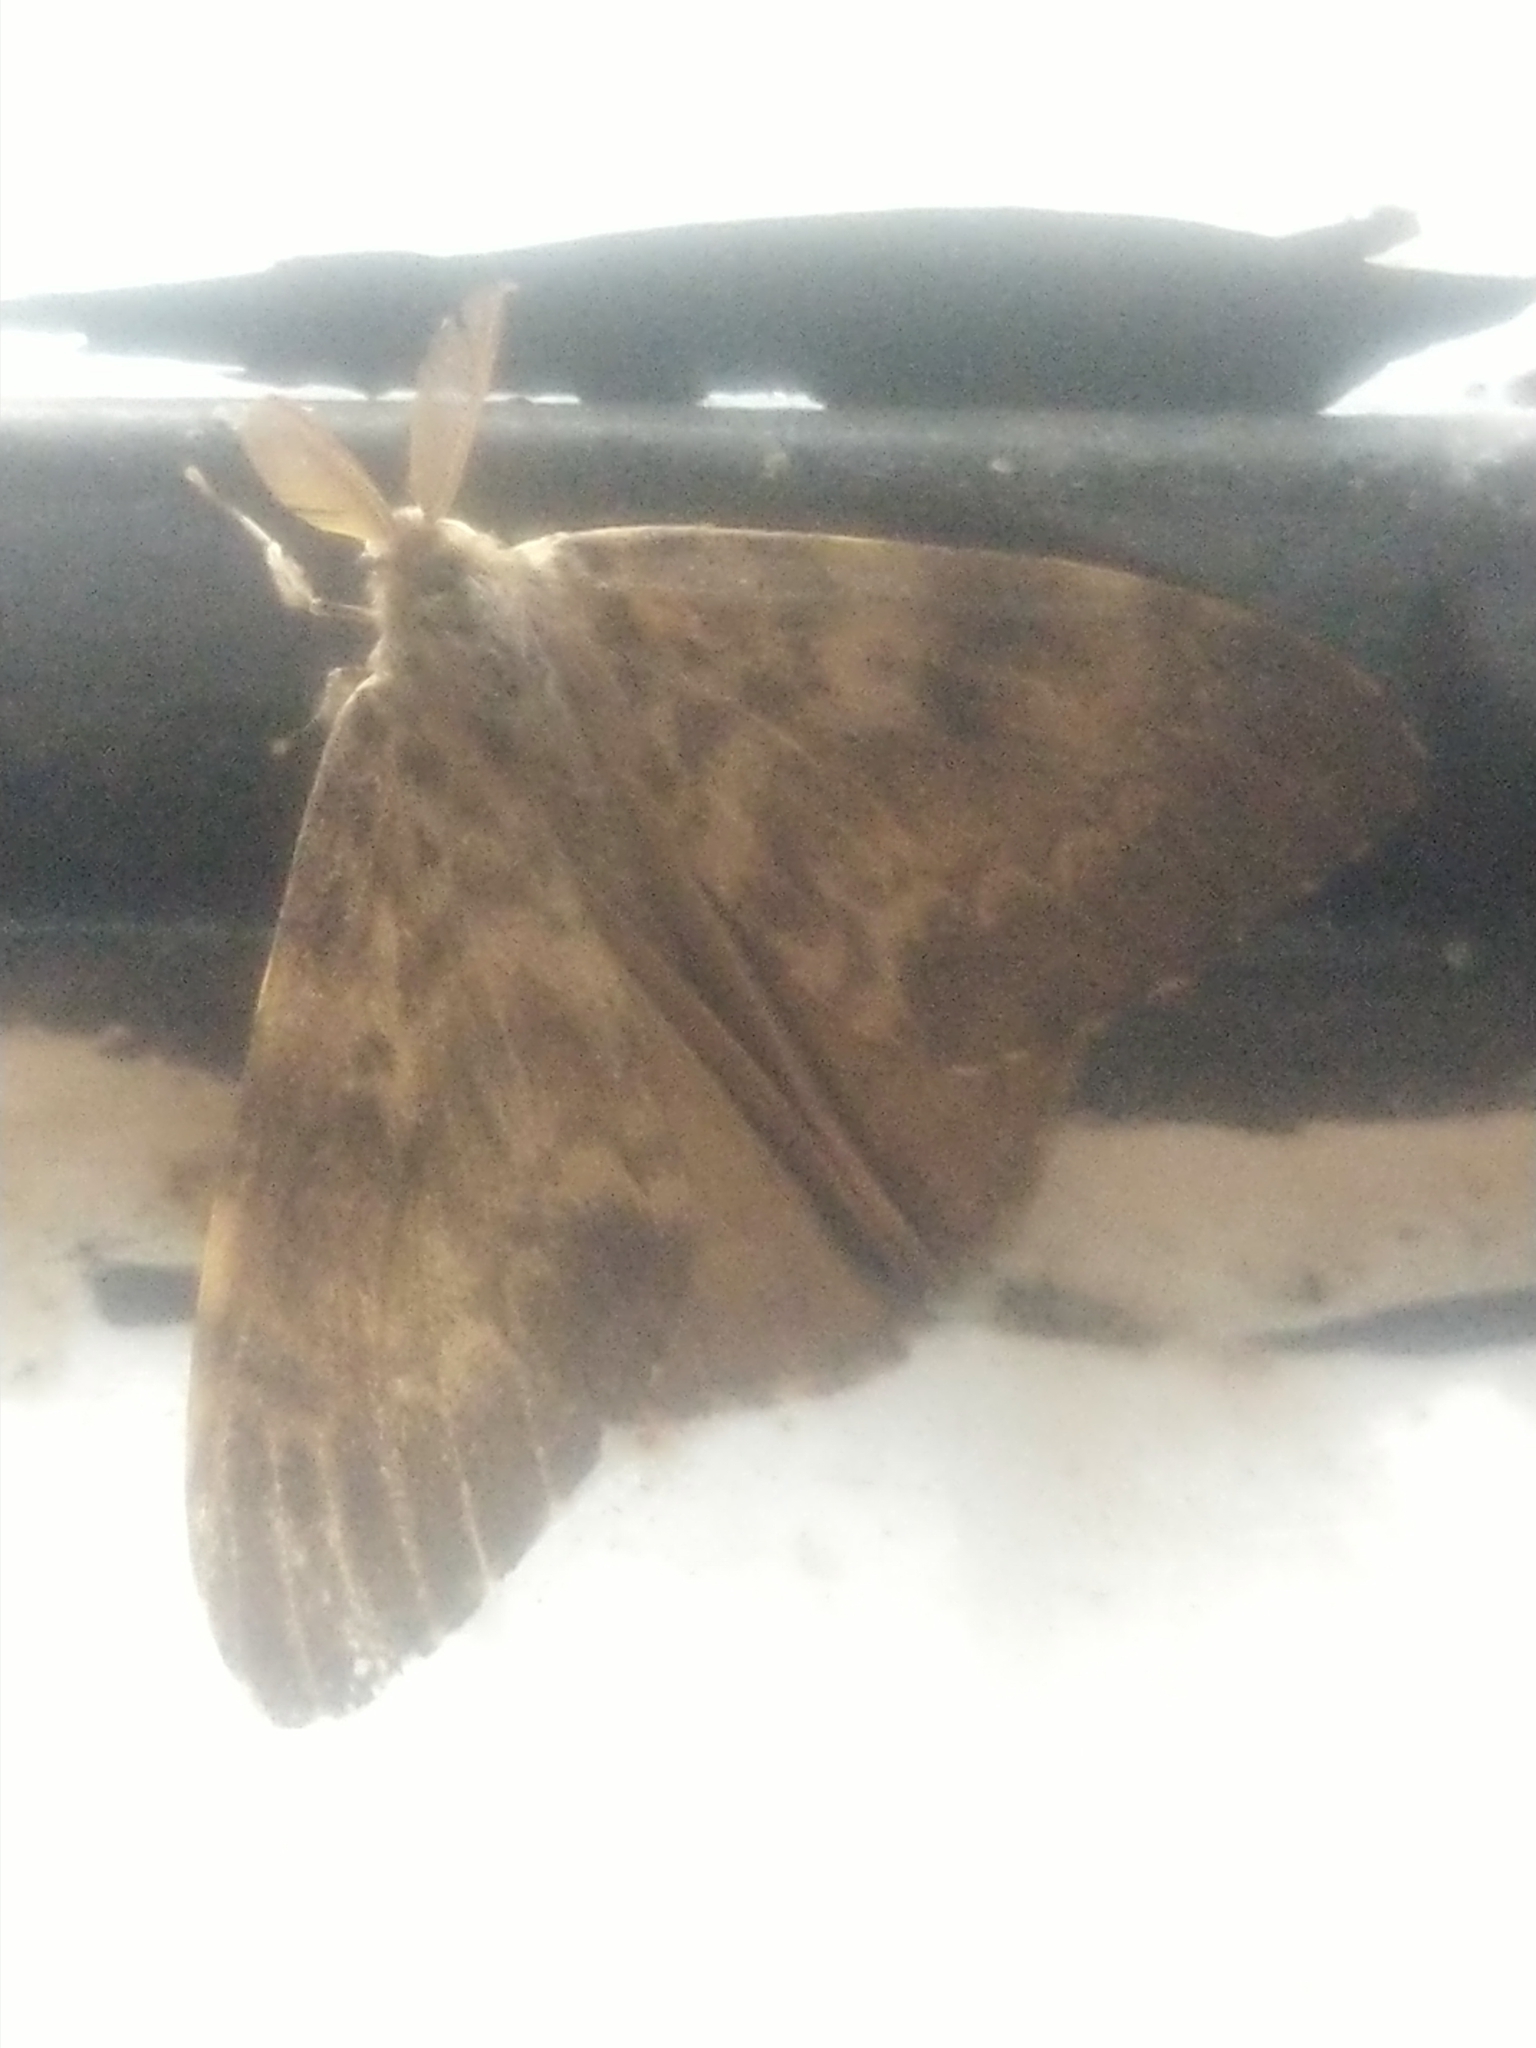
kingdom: Animalia
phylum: Arthropoda
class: Insecta
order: Lepidoptera
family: Erebidae
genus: Lymantria
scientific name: Lymantria ampla
